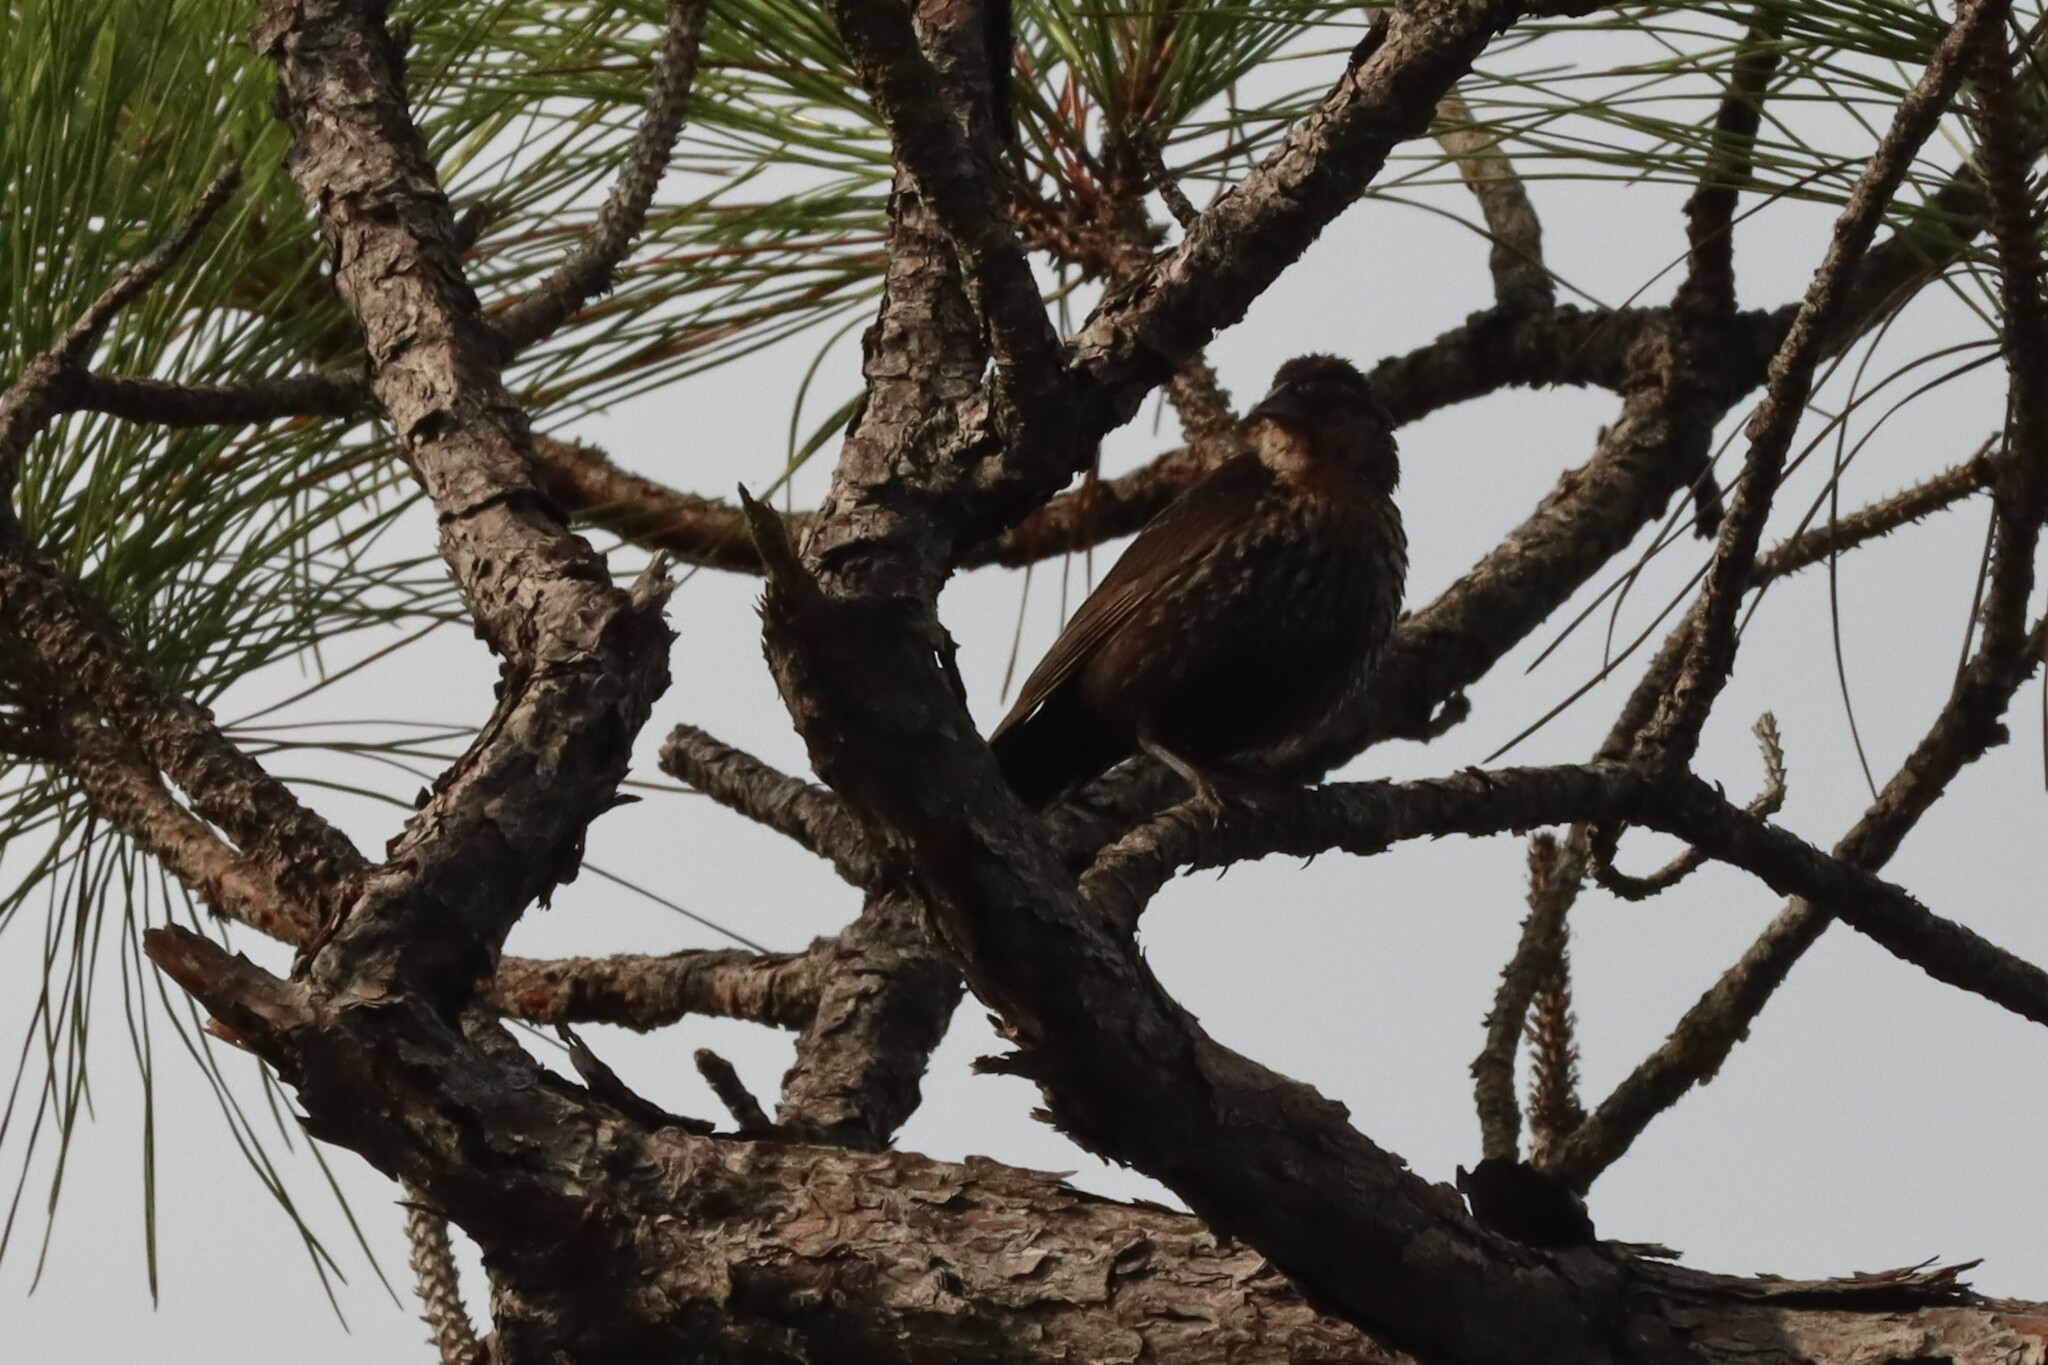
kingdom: Animalia
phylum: Chordata
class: Aves
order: Passeriformes
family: Icteridae
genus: Agelaius
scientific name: Agelaius phoeniceus
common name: Red-winged blackbird
